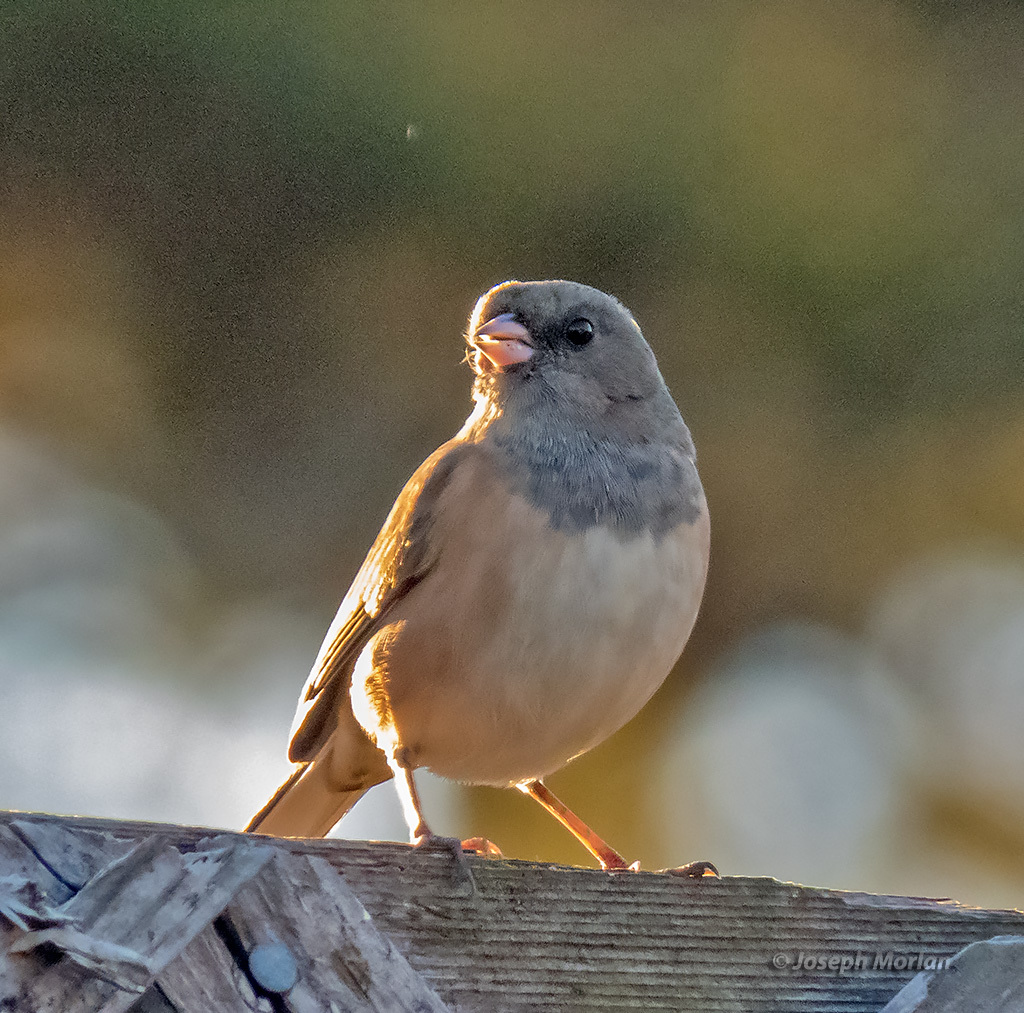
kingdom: Animalia
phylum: Chordata
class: Aves
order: Passeriformes
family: Passerellidae
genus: Junco
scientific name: Junco hyemalis
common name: Dark-eyed junco
